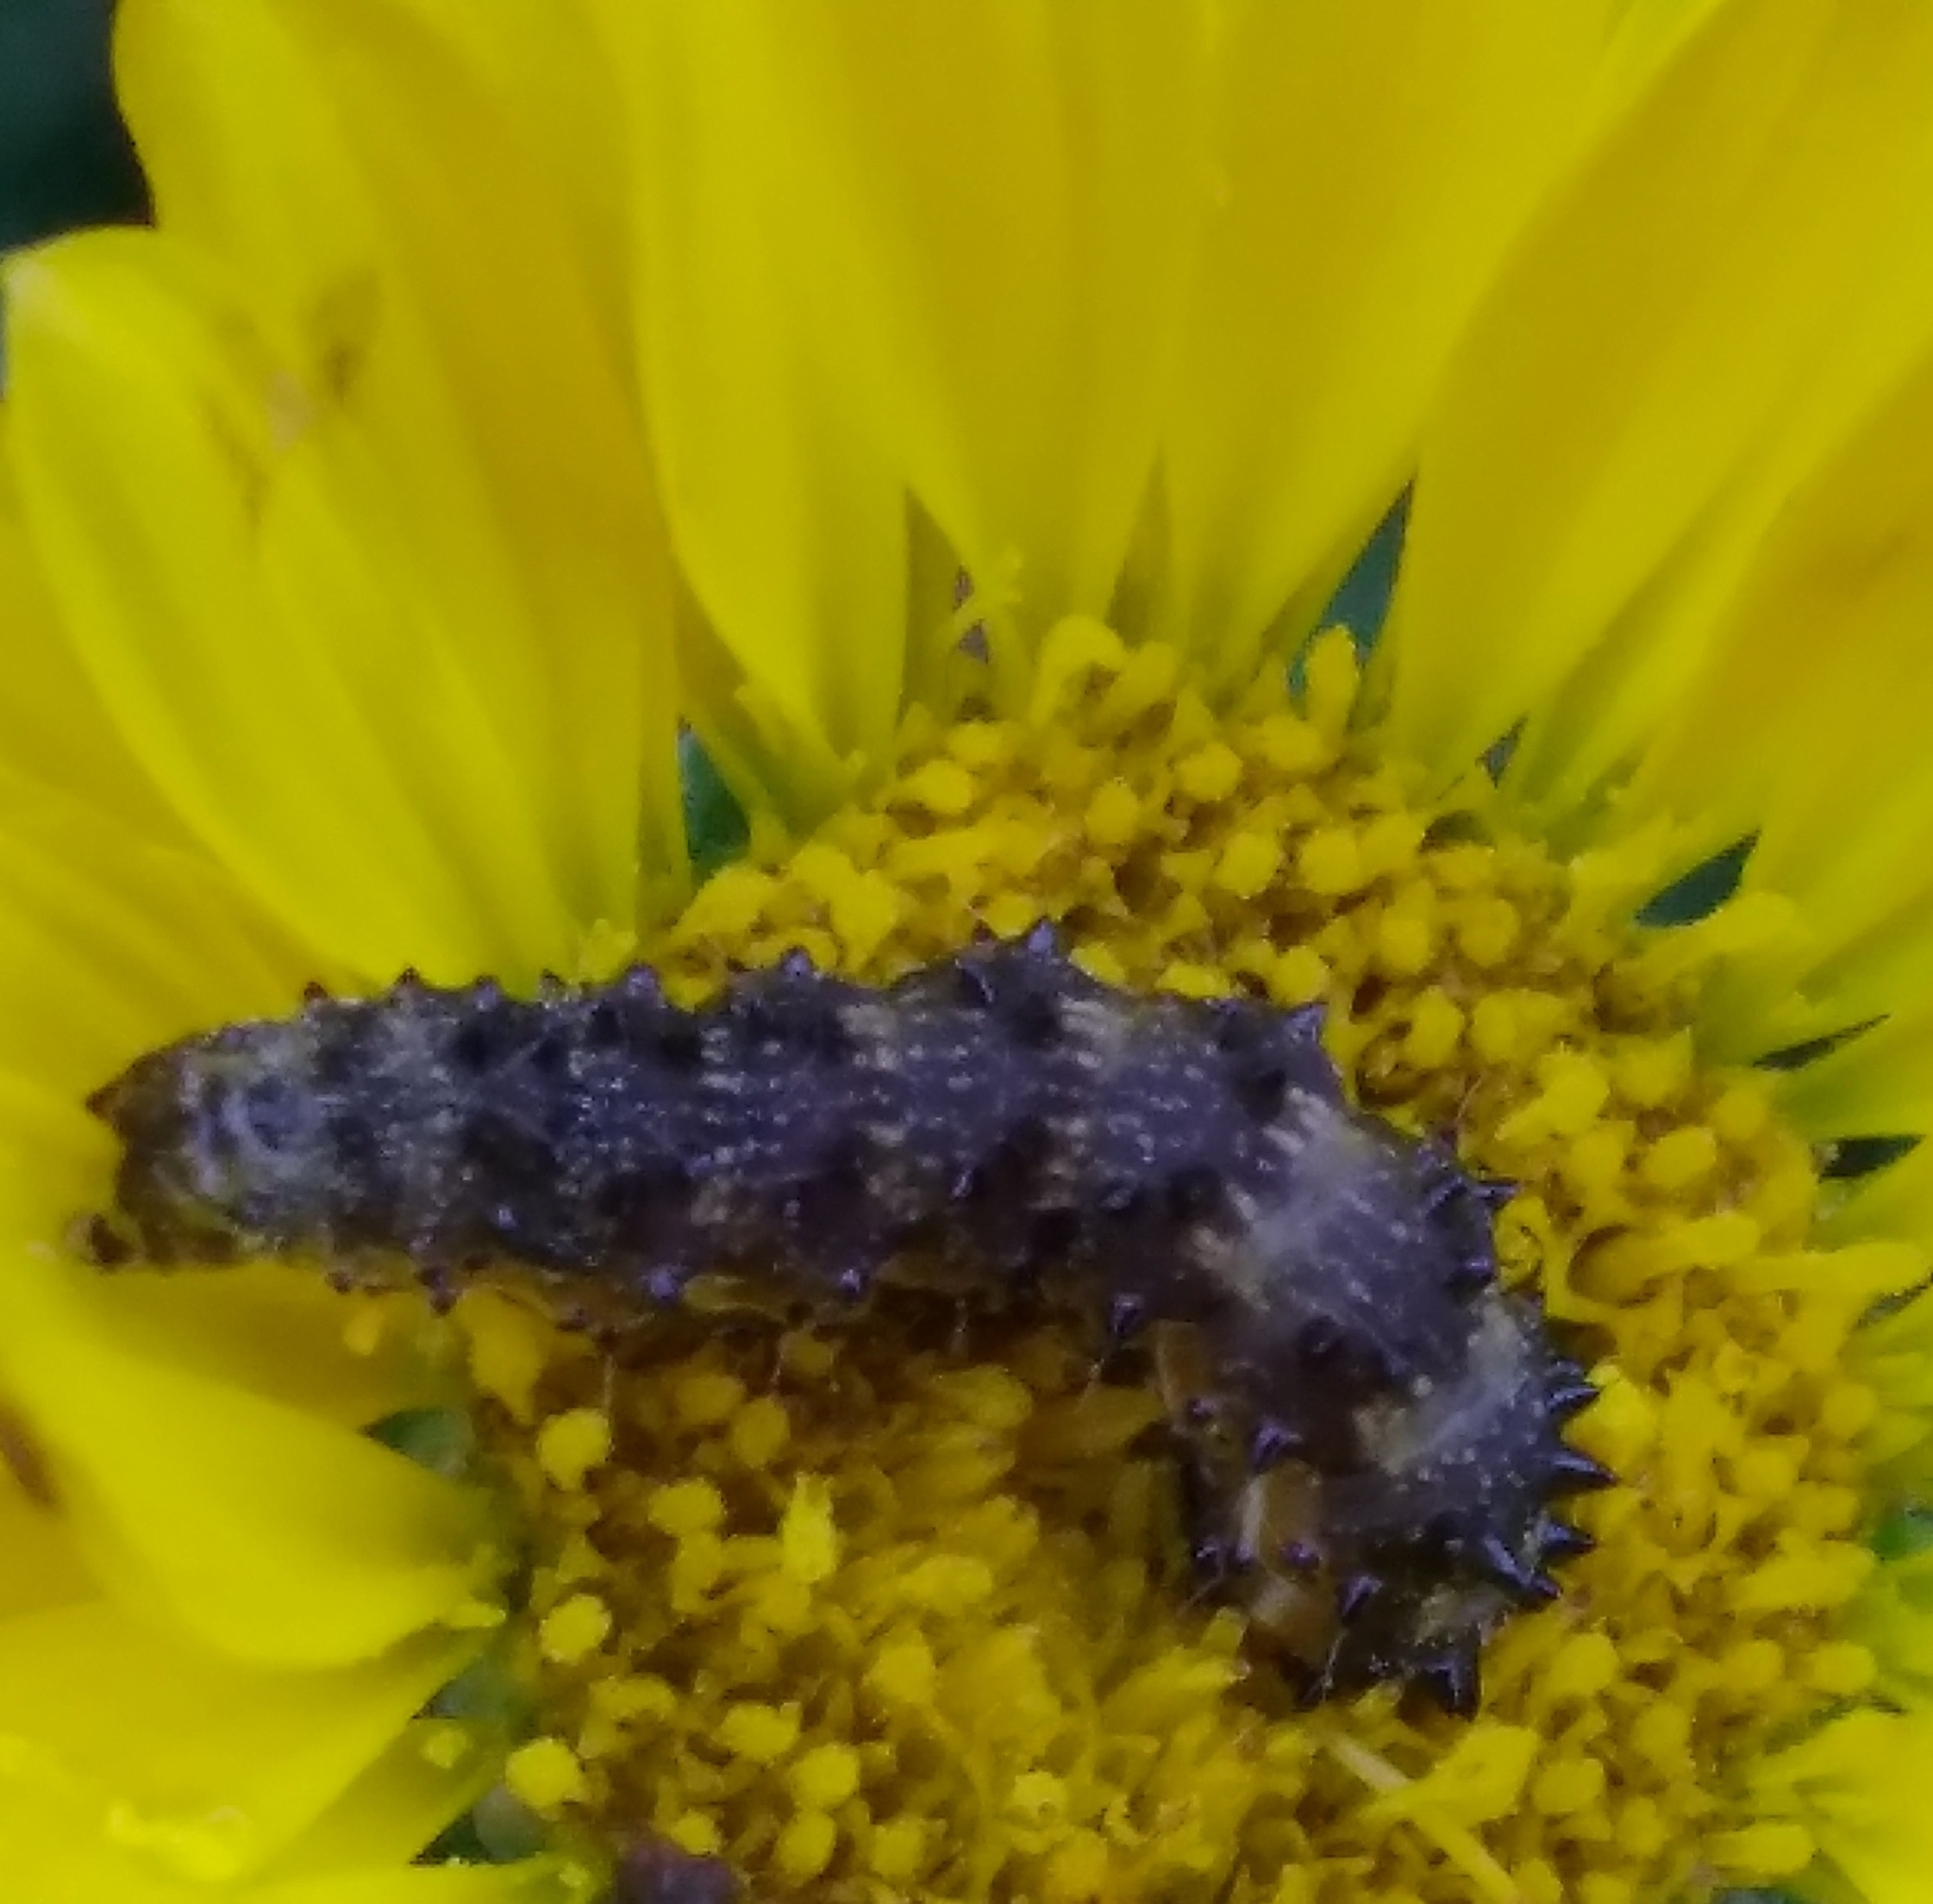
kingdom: Animalia
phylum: Arthropoda
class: Insecta
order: Lepidoptera
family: Noctuidae
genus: Stiria
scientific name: Stiria rugifrons
